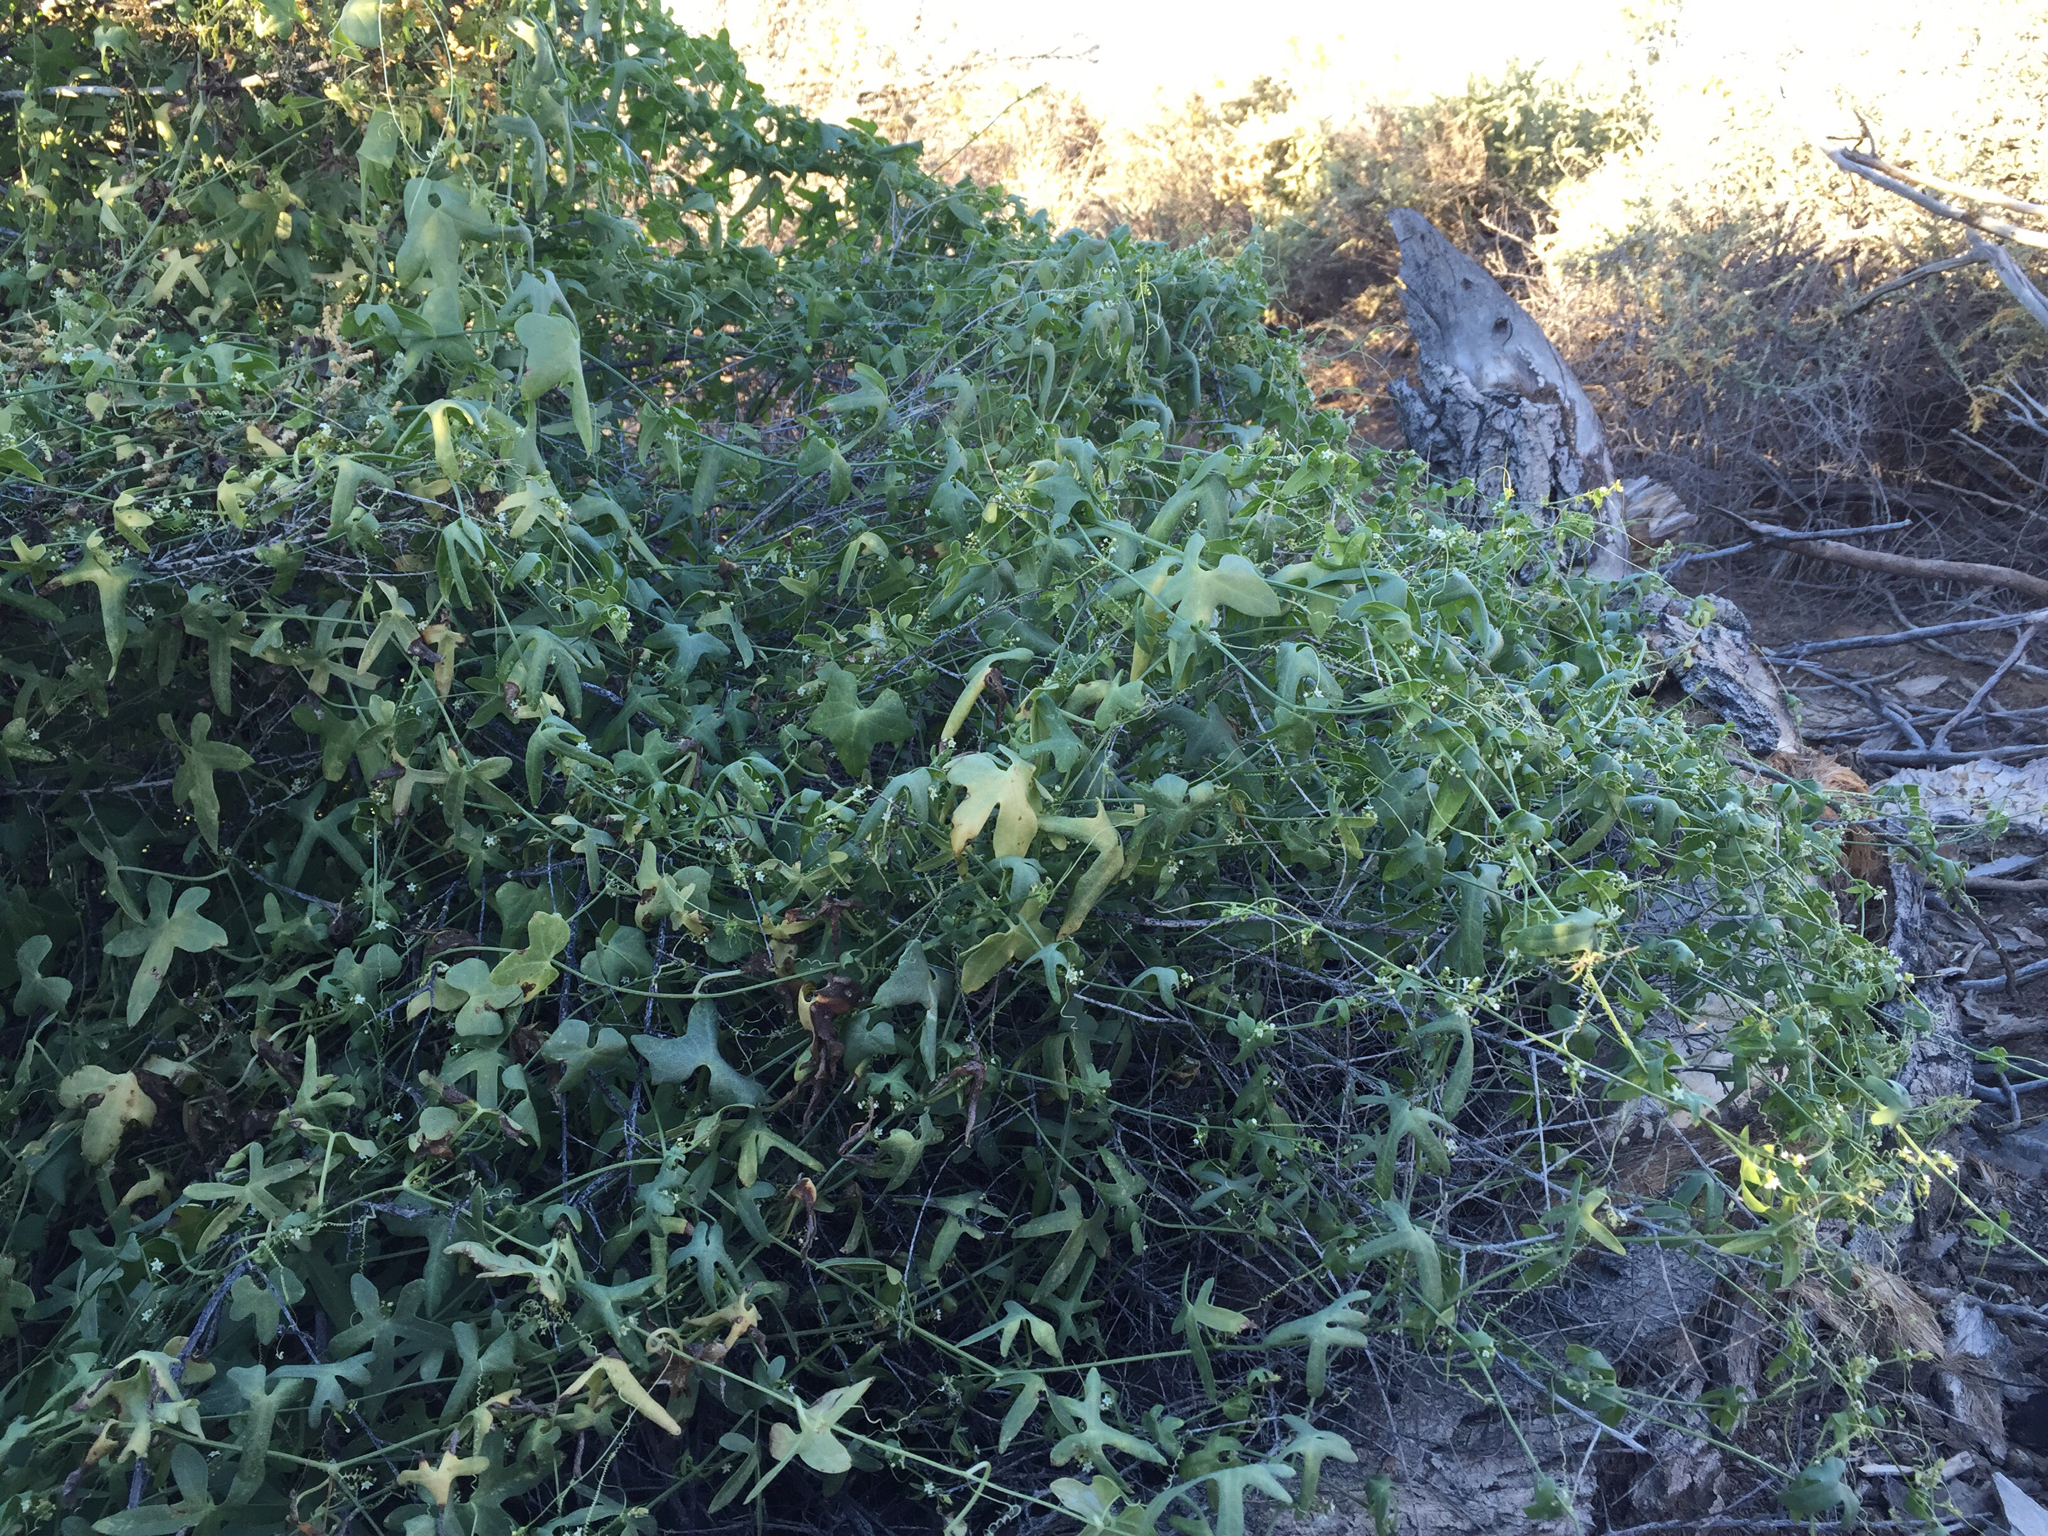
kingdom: Plantae
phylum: Tracheophyta
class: Magnoliopsida
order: Cucurbitales
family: Cucurbitaceae
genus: Echinopepon
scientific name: Echinopepon bigelovii
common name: Desert starvine
